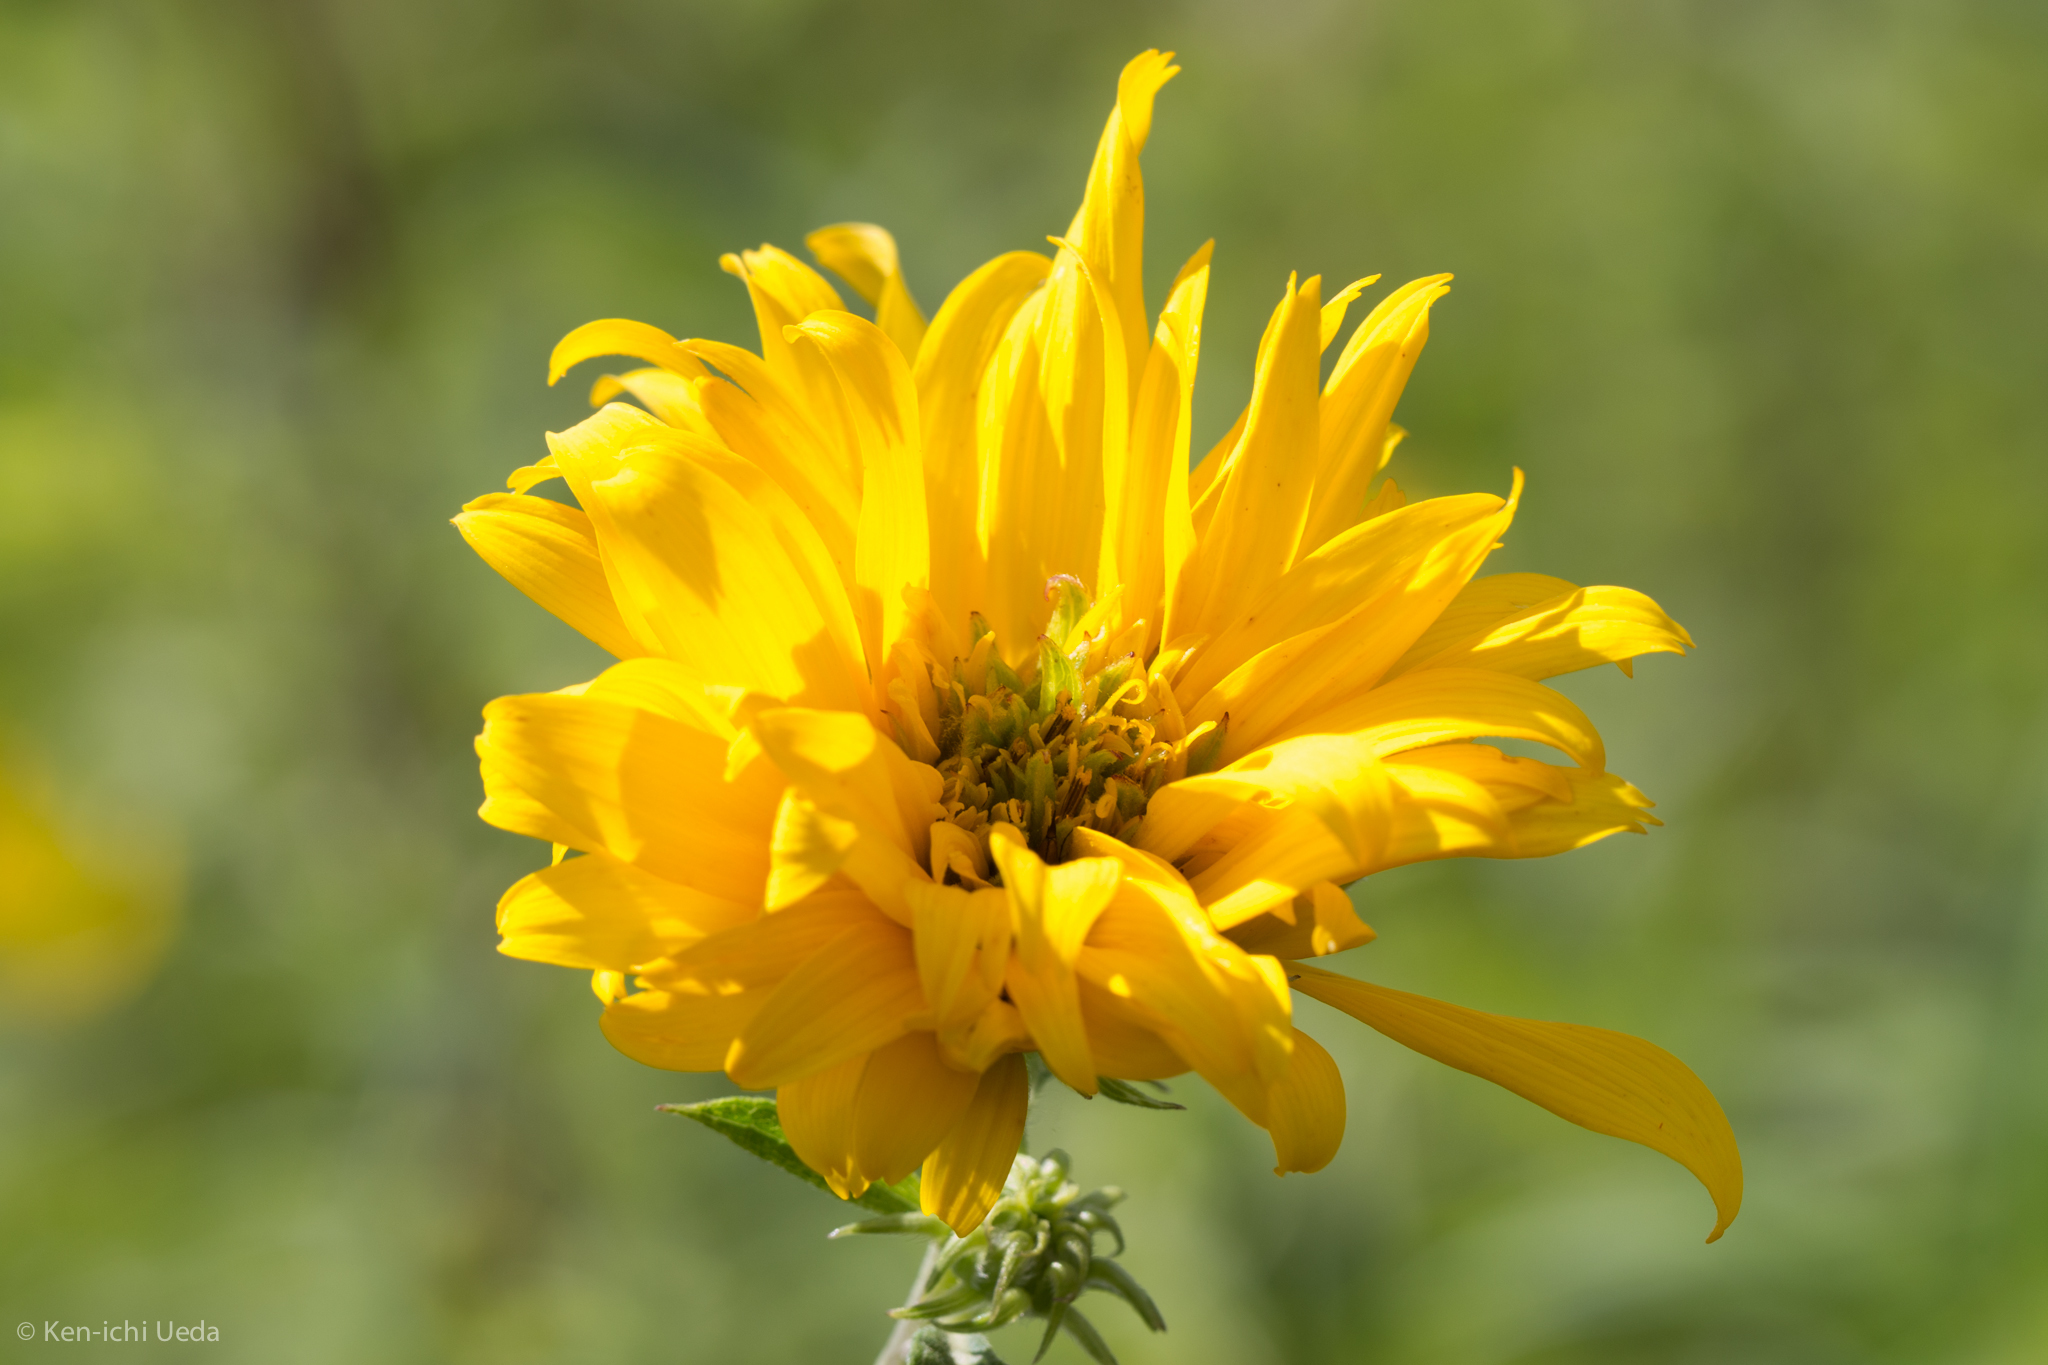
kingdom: Plantae
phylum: Tracheophyta
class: Magnoliopsida
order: Asterales
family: Asteraceae
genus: Helianthus
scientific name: Helianthus grosseserratus
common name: Sawtooth sunflower
